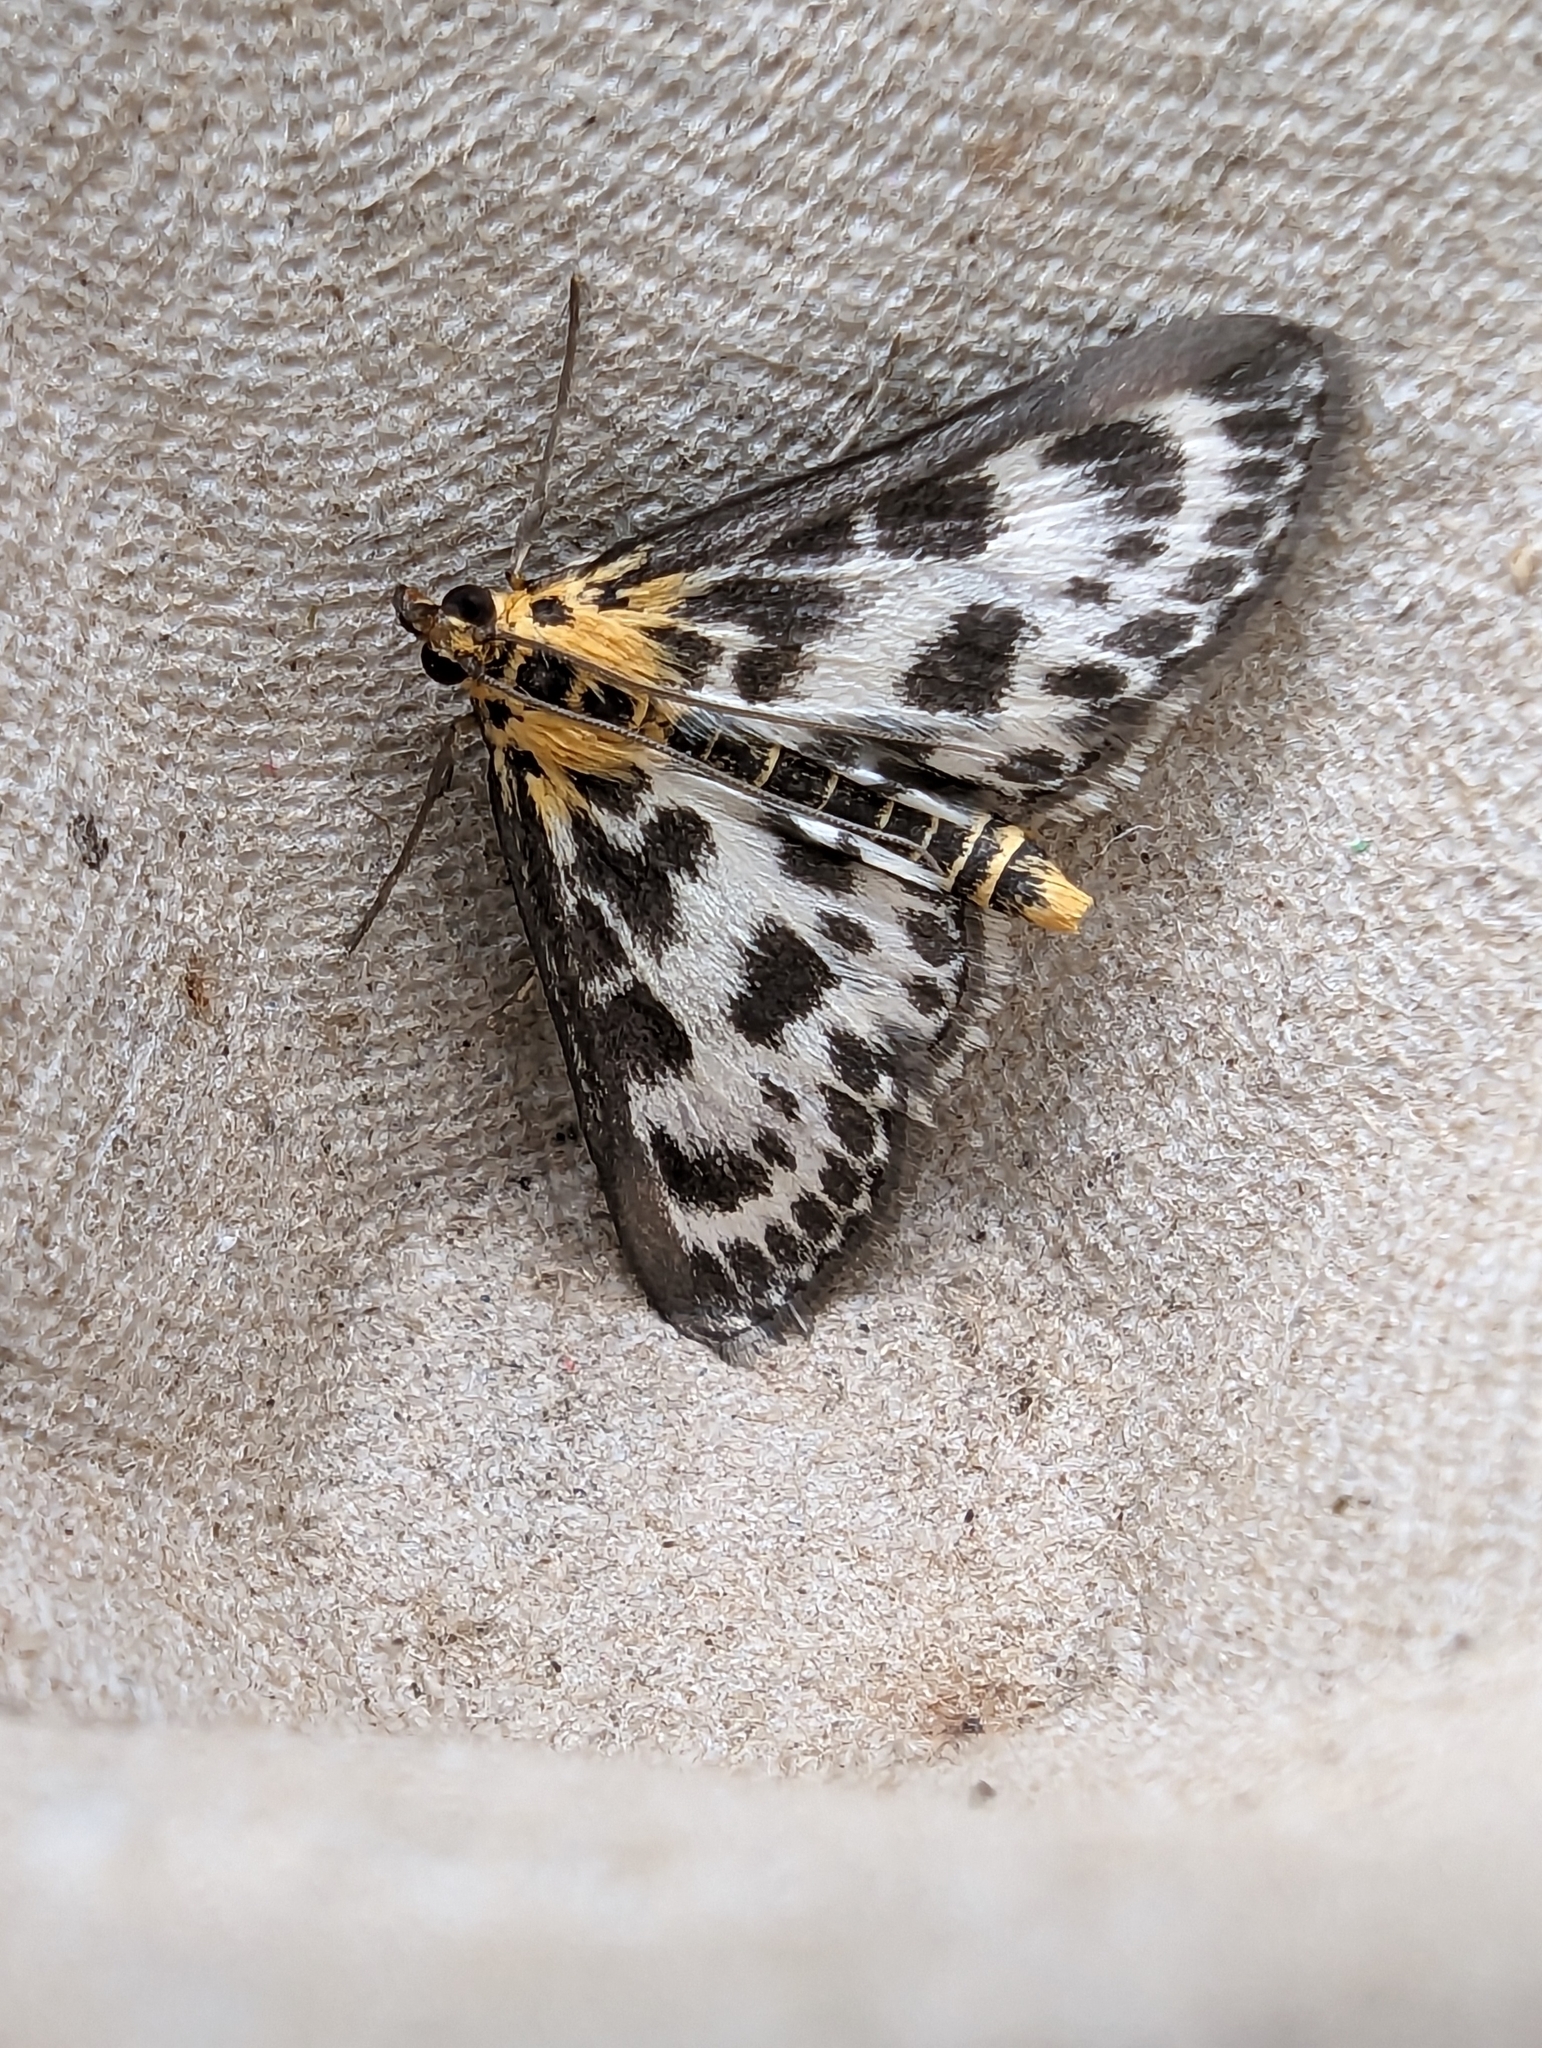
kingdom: Animalia
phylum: Arthropoda
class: Insecta
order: Lepidoptera
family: Crambidae
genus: Anania
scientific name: Anania hortulata
